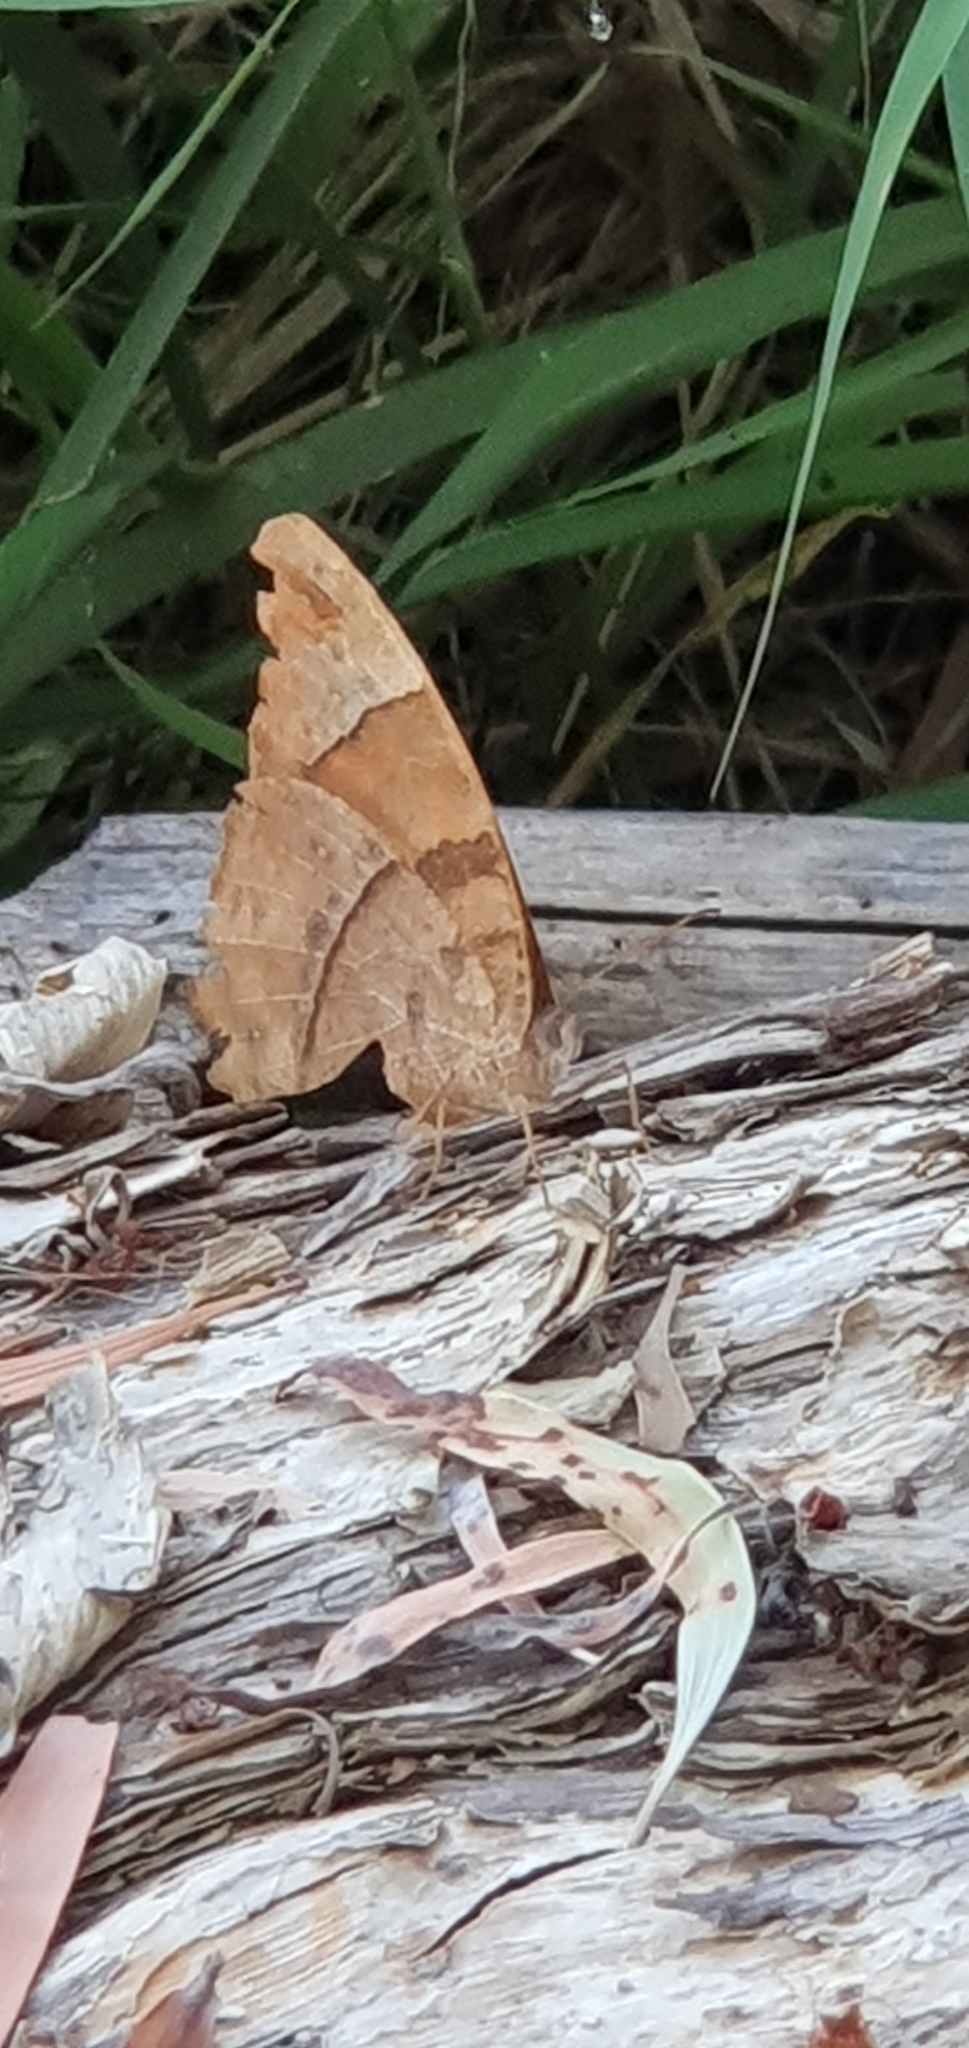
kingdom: Animalia
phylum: Arthropoda
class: Insecta
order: Lepidoptera
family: Nymphalidae
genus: Melanitis
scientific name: Melanitis leda
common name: Twilight brown
